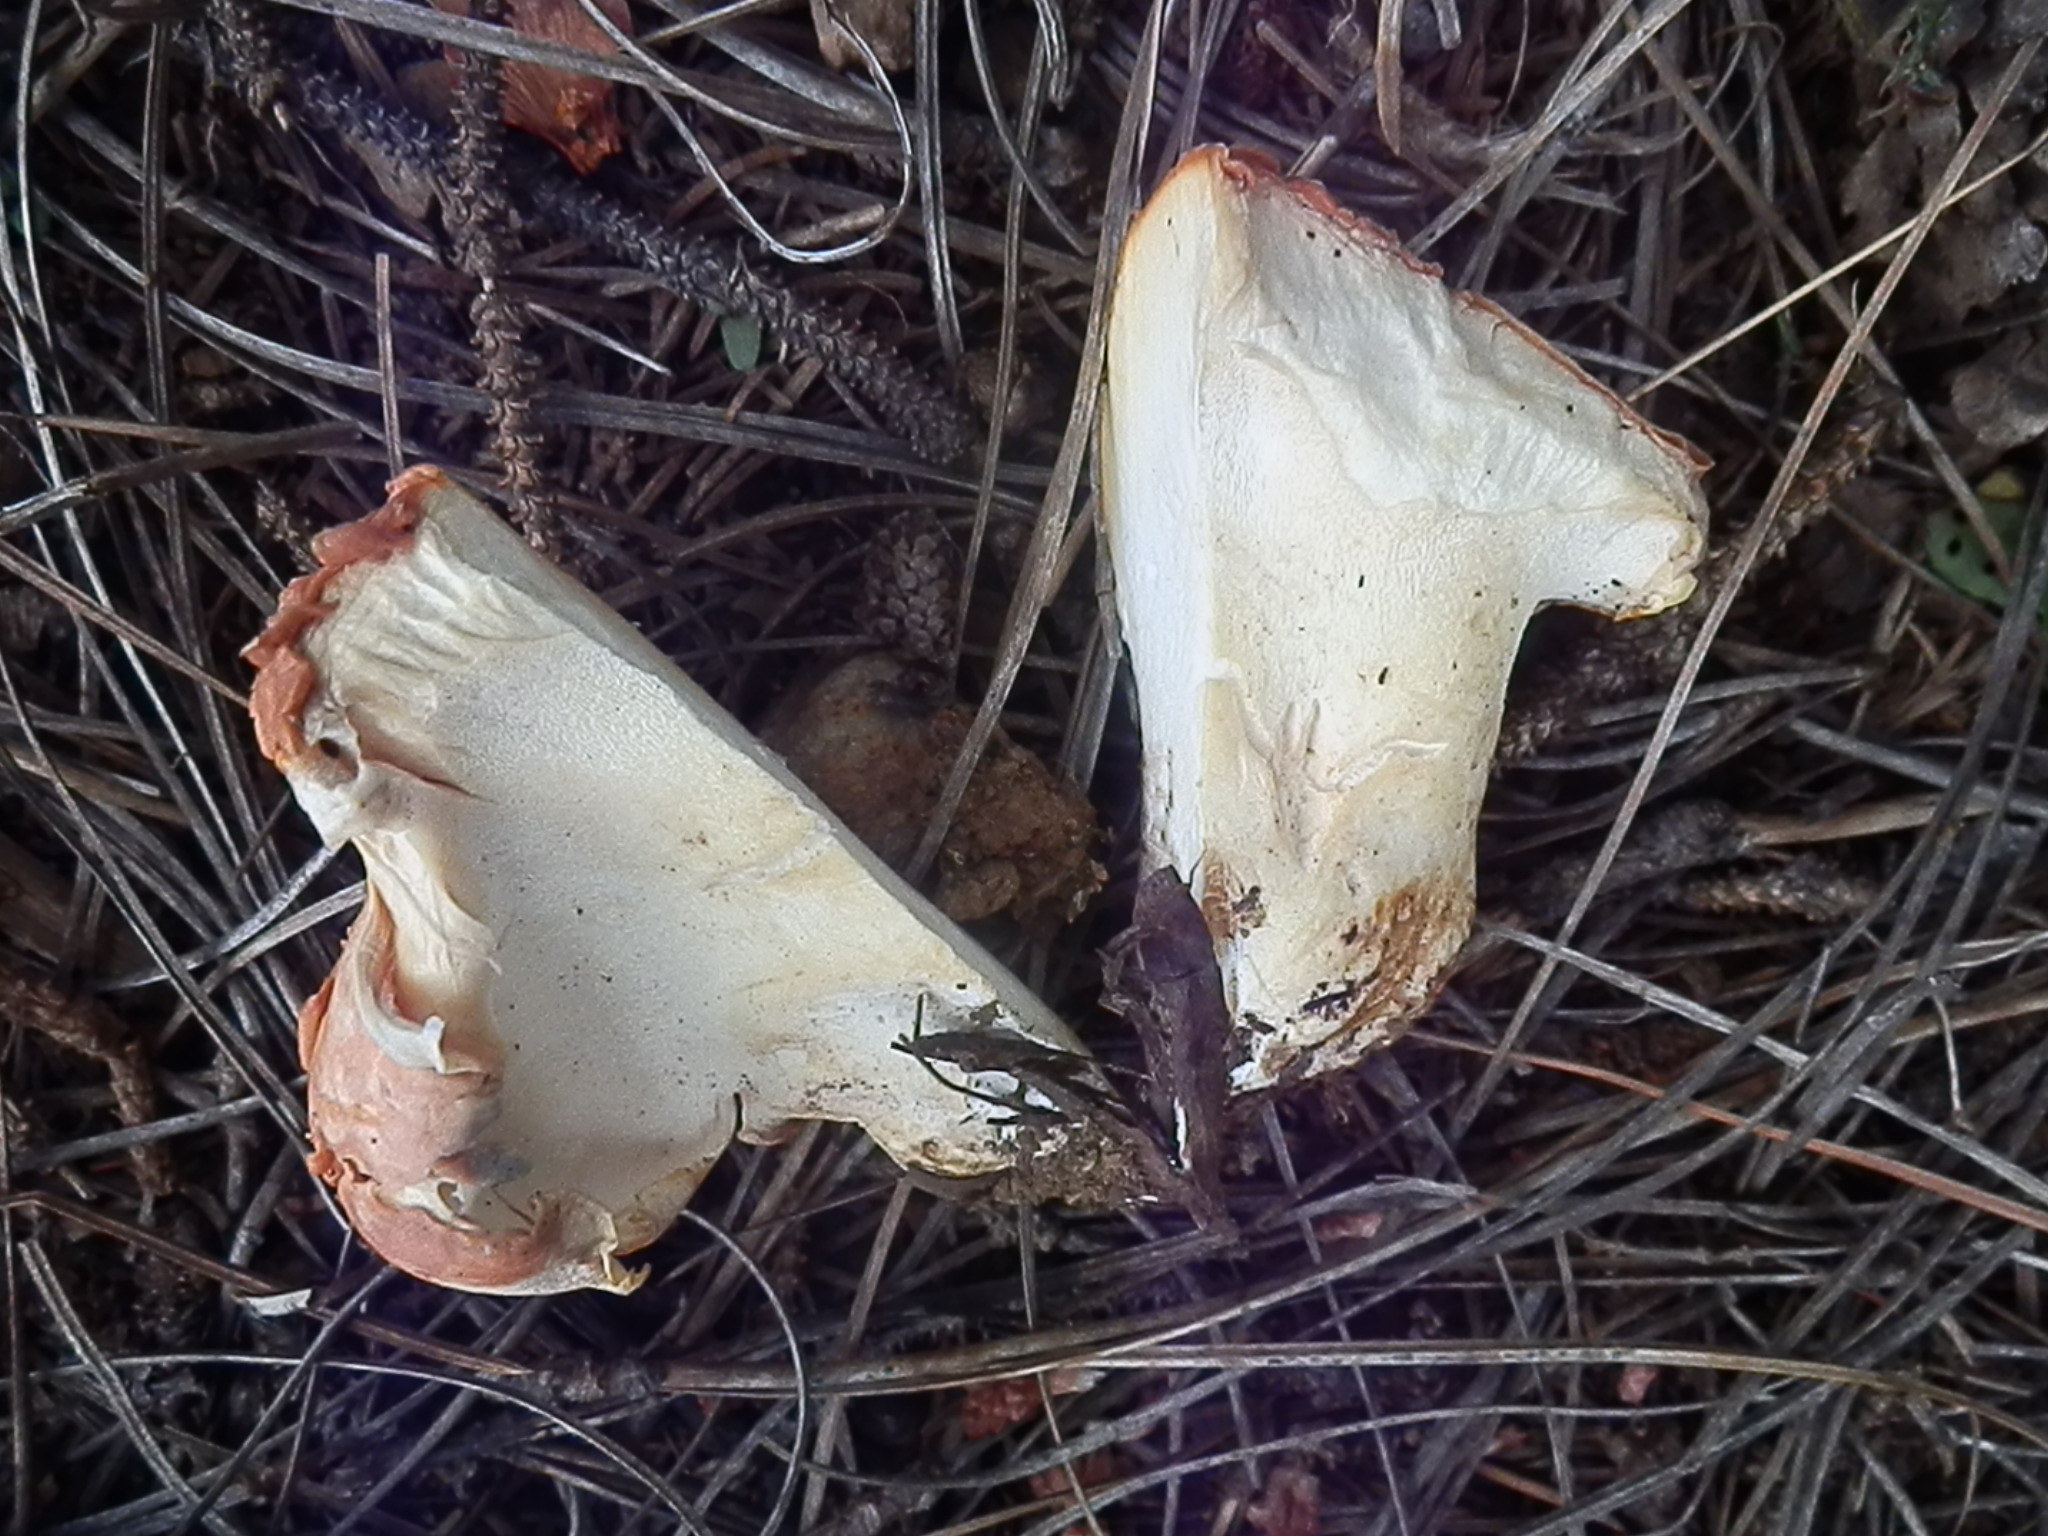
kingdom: Fungi
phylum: Basidiomycota
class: Agaricomycetes
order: Russulales
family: Albatrellaceae
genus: Albatrellopsis
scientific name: Albatrellopsis confluens
